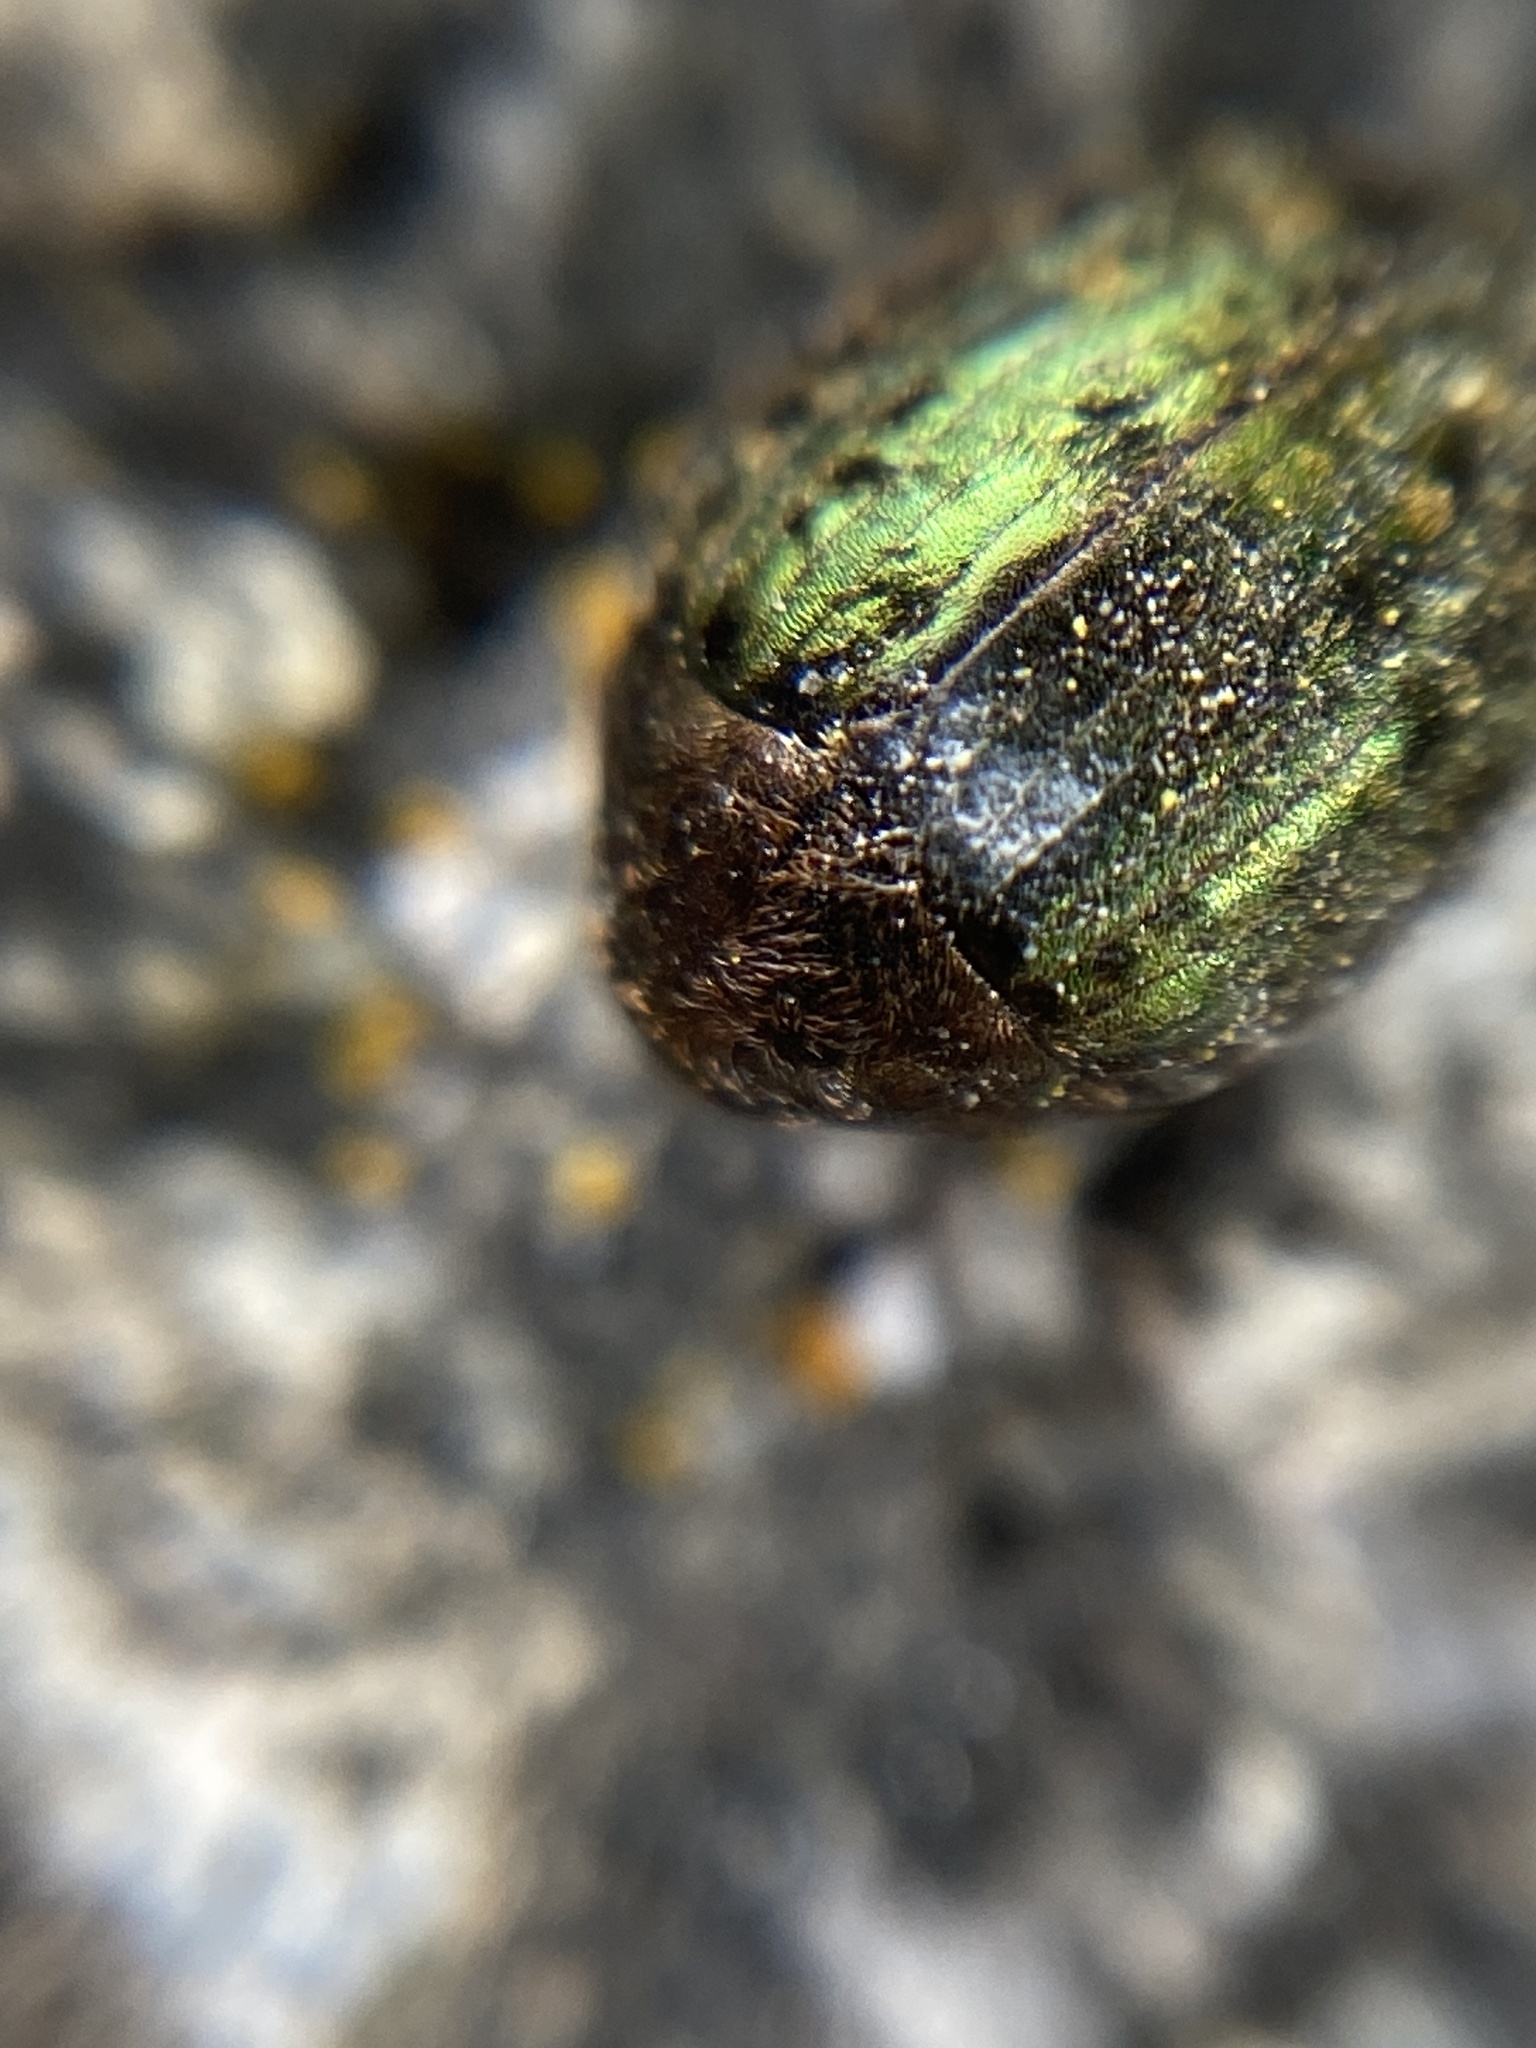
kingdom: Animalia
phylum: Arthropoda
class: Insecta
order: Coleoptera
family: Byrrhidae
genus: Cytilus
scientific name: Cytilus sericeus
